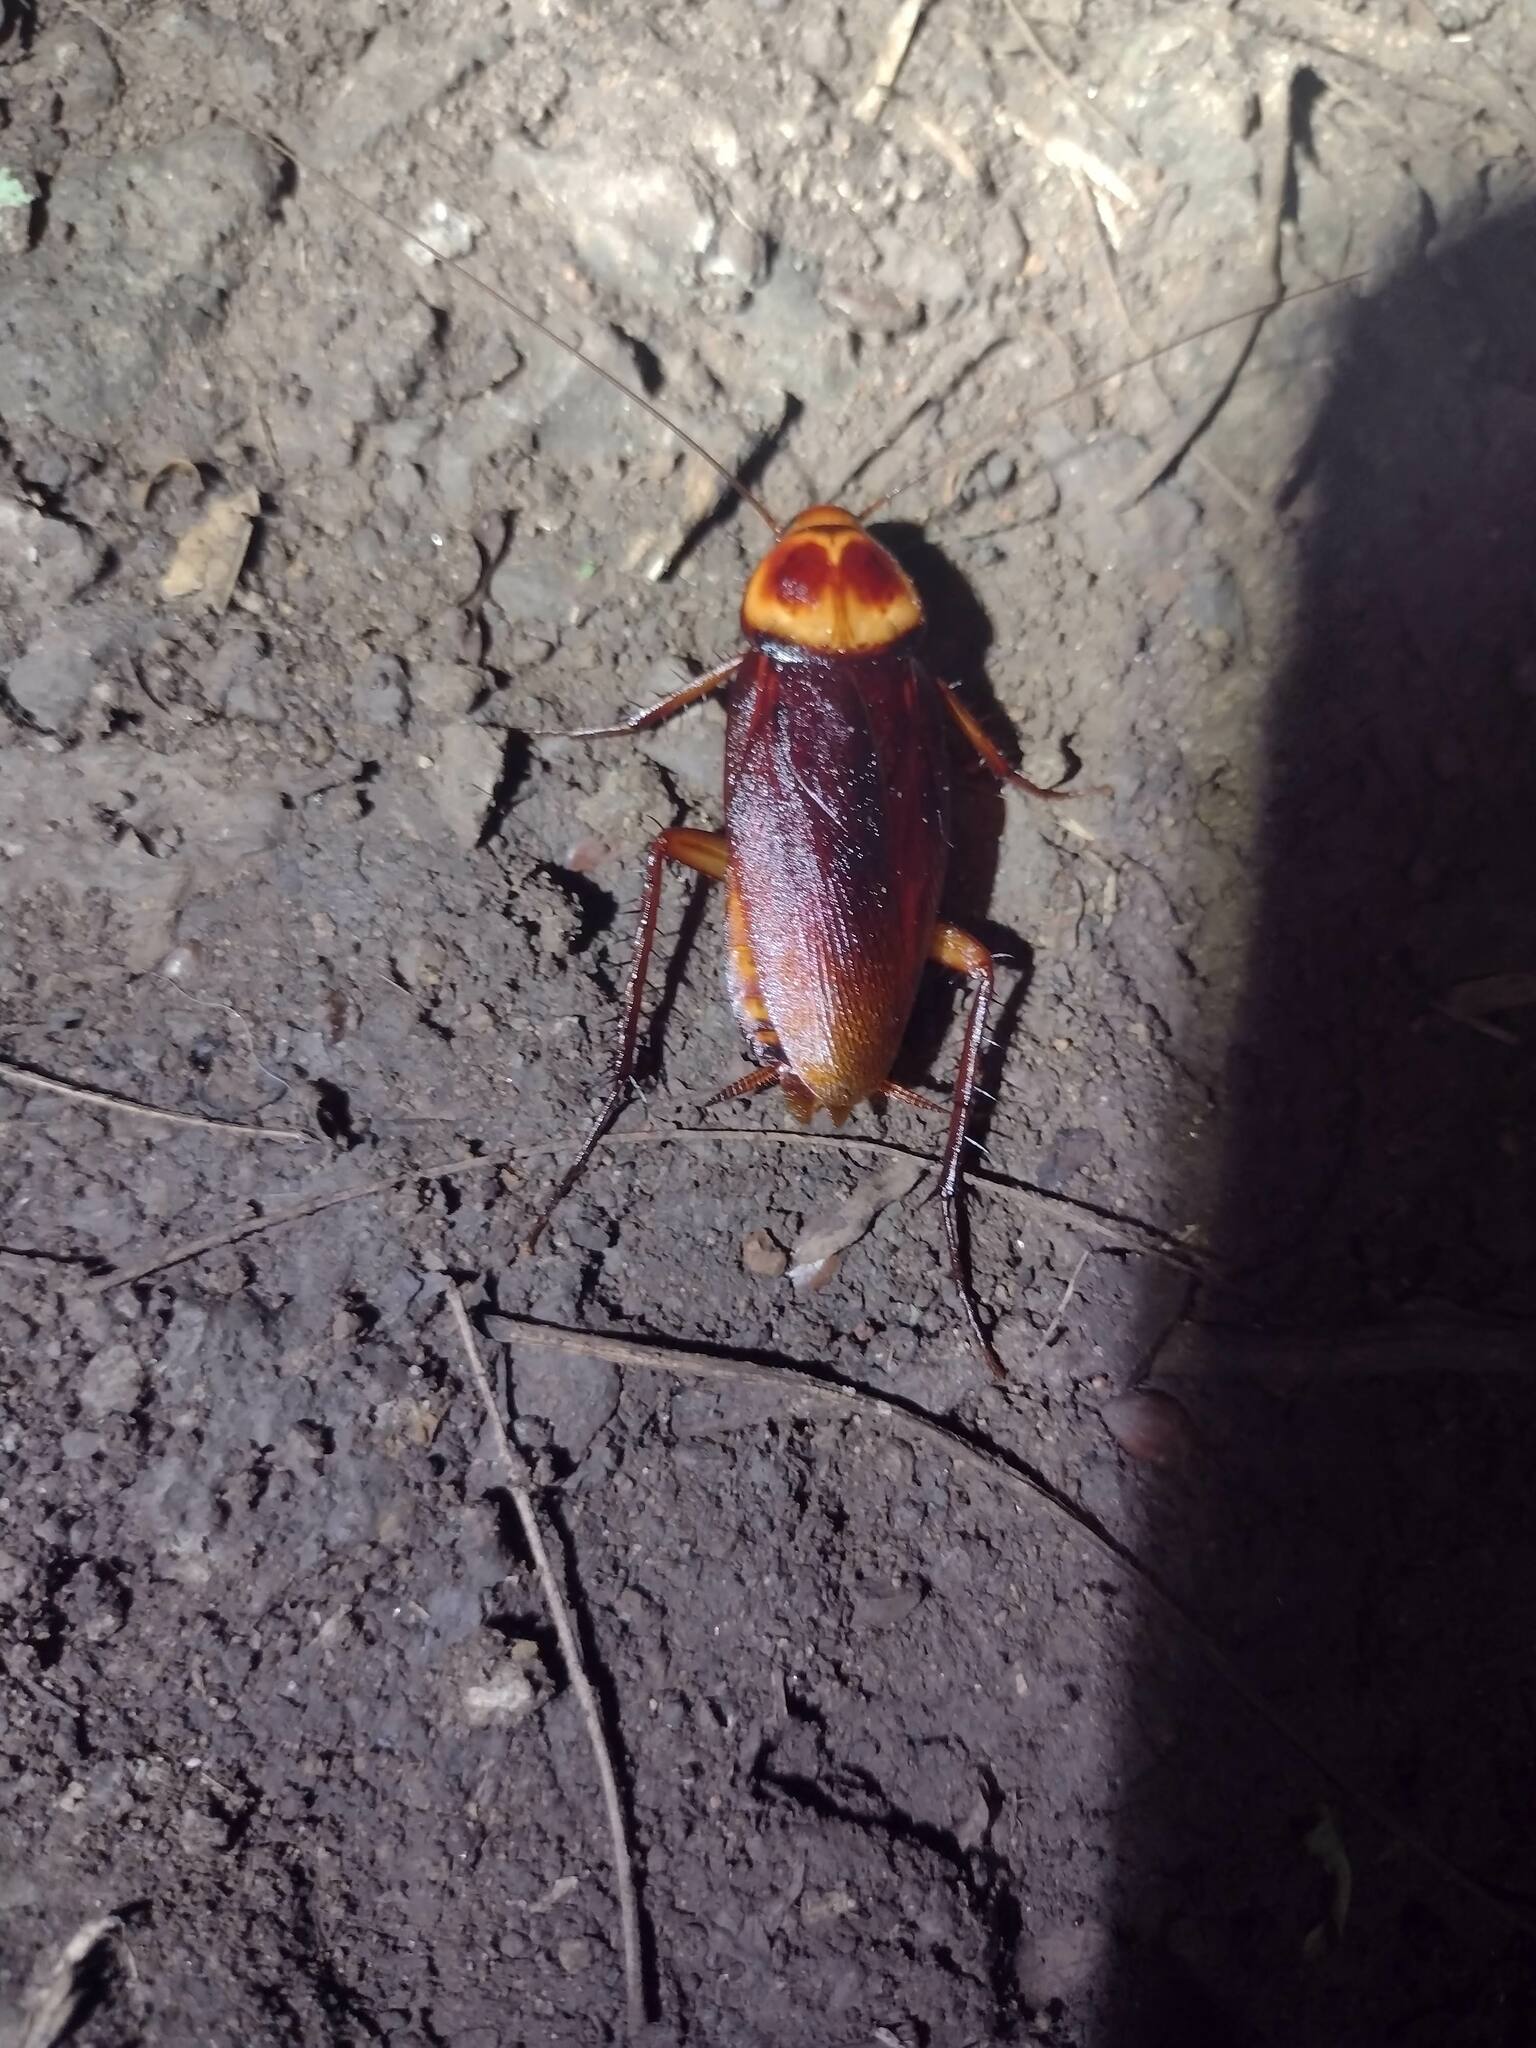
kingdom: Animalia
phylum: Arthropoda
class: Insecta
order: Blattodea
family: Blattidae
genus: Periplaneta
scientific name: Periplaneta americana
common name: American cockroach
